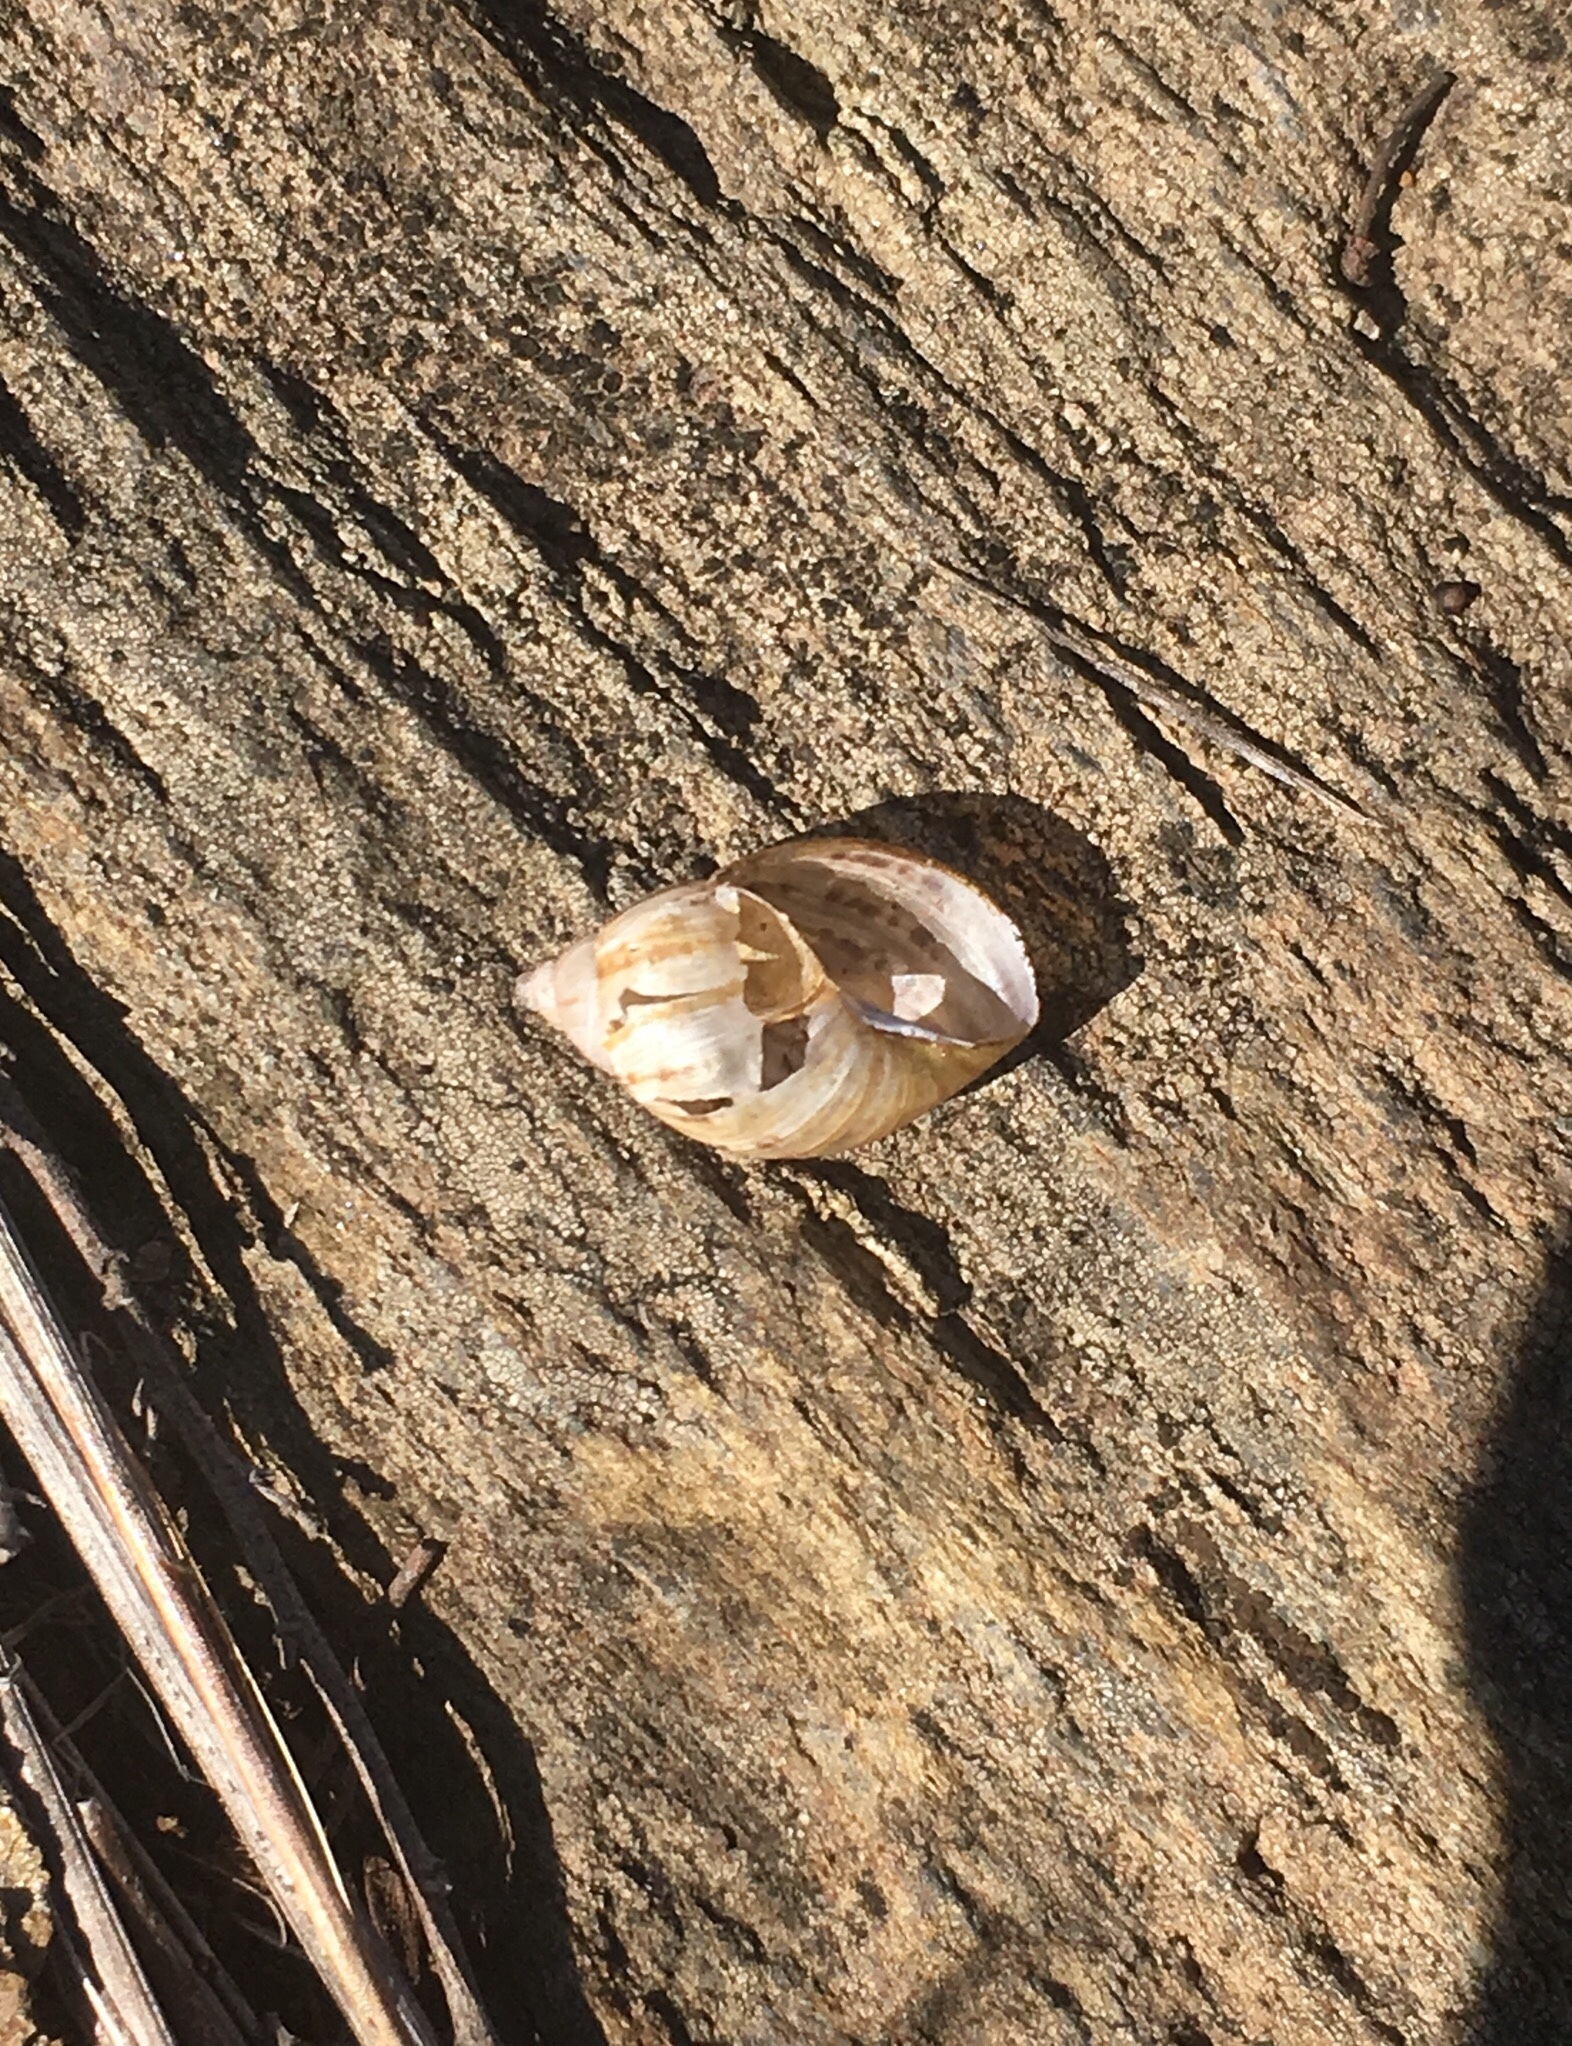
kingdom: Animalia
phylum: Mollusca
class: Gastropoda
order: Stylommatophora
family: Bothriembryontidae
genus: Discoleus
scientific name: Discoleus aguirrei
